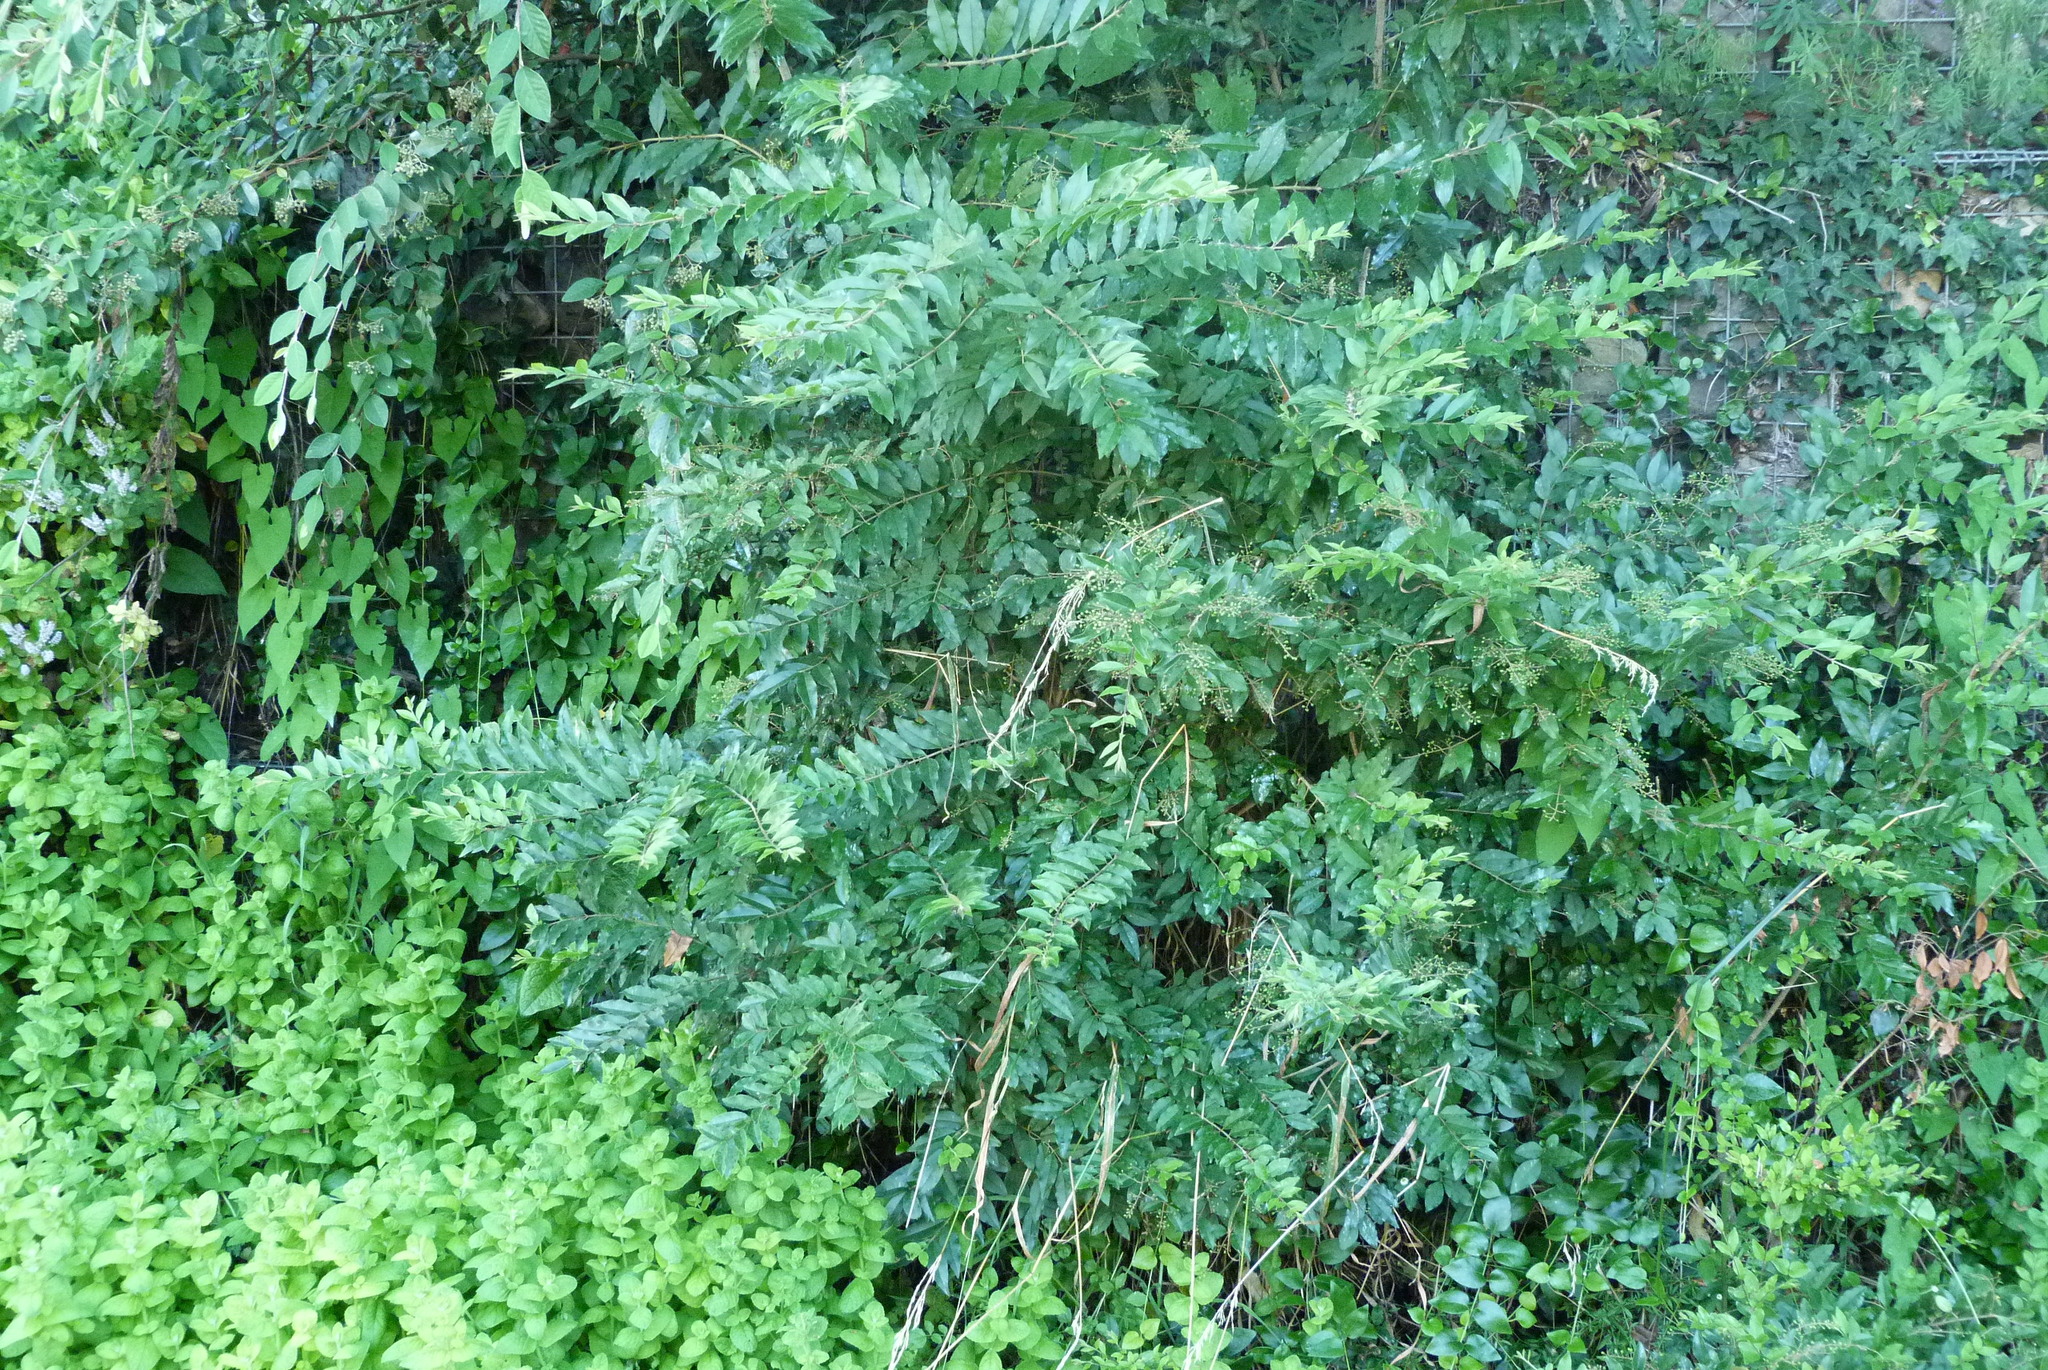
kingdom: Plantae
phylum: Tracheophyta
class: Magnoliopsida
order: Lamiales
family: Oleaceae
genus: Ligustrum
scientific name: Ligustrum sinense
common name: Chinese privet
